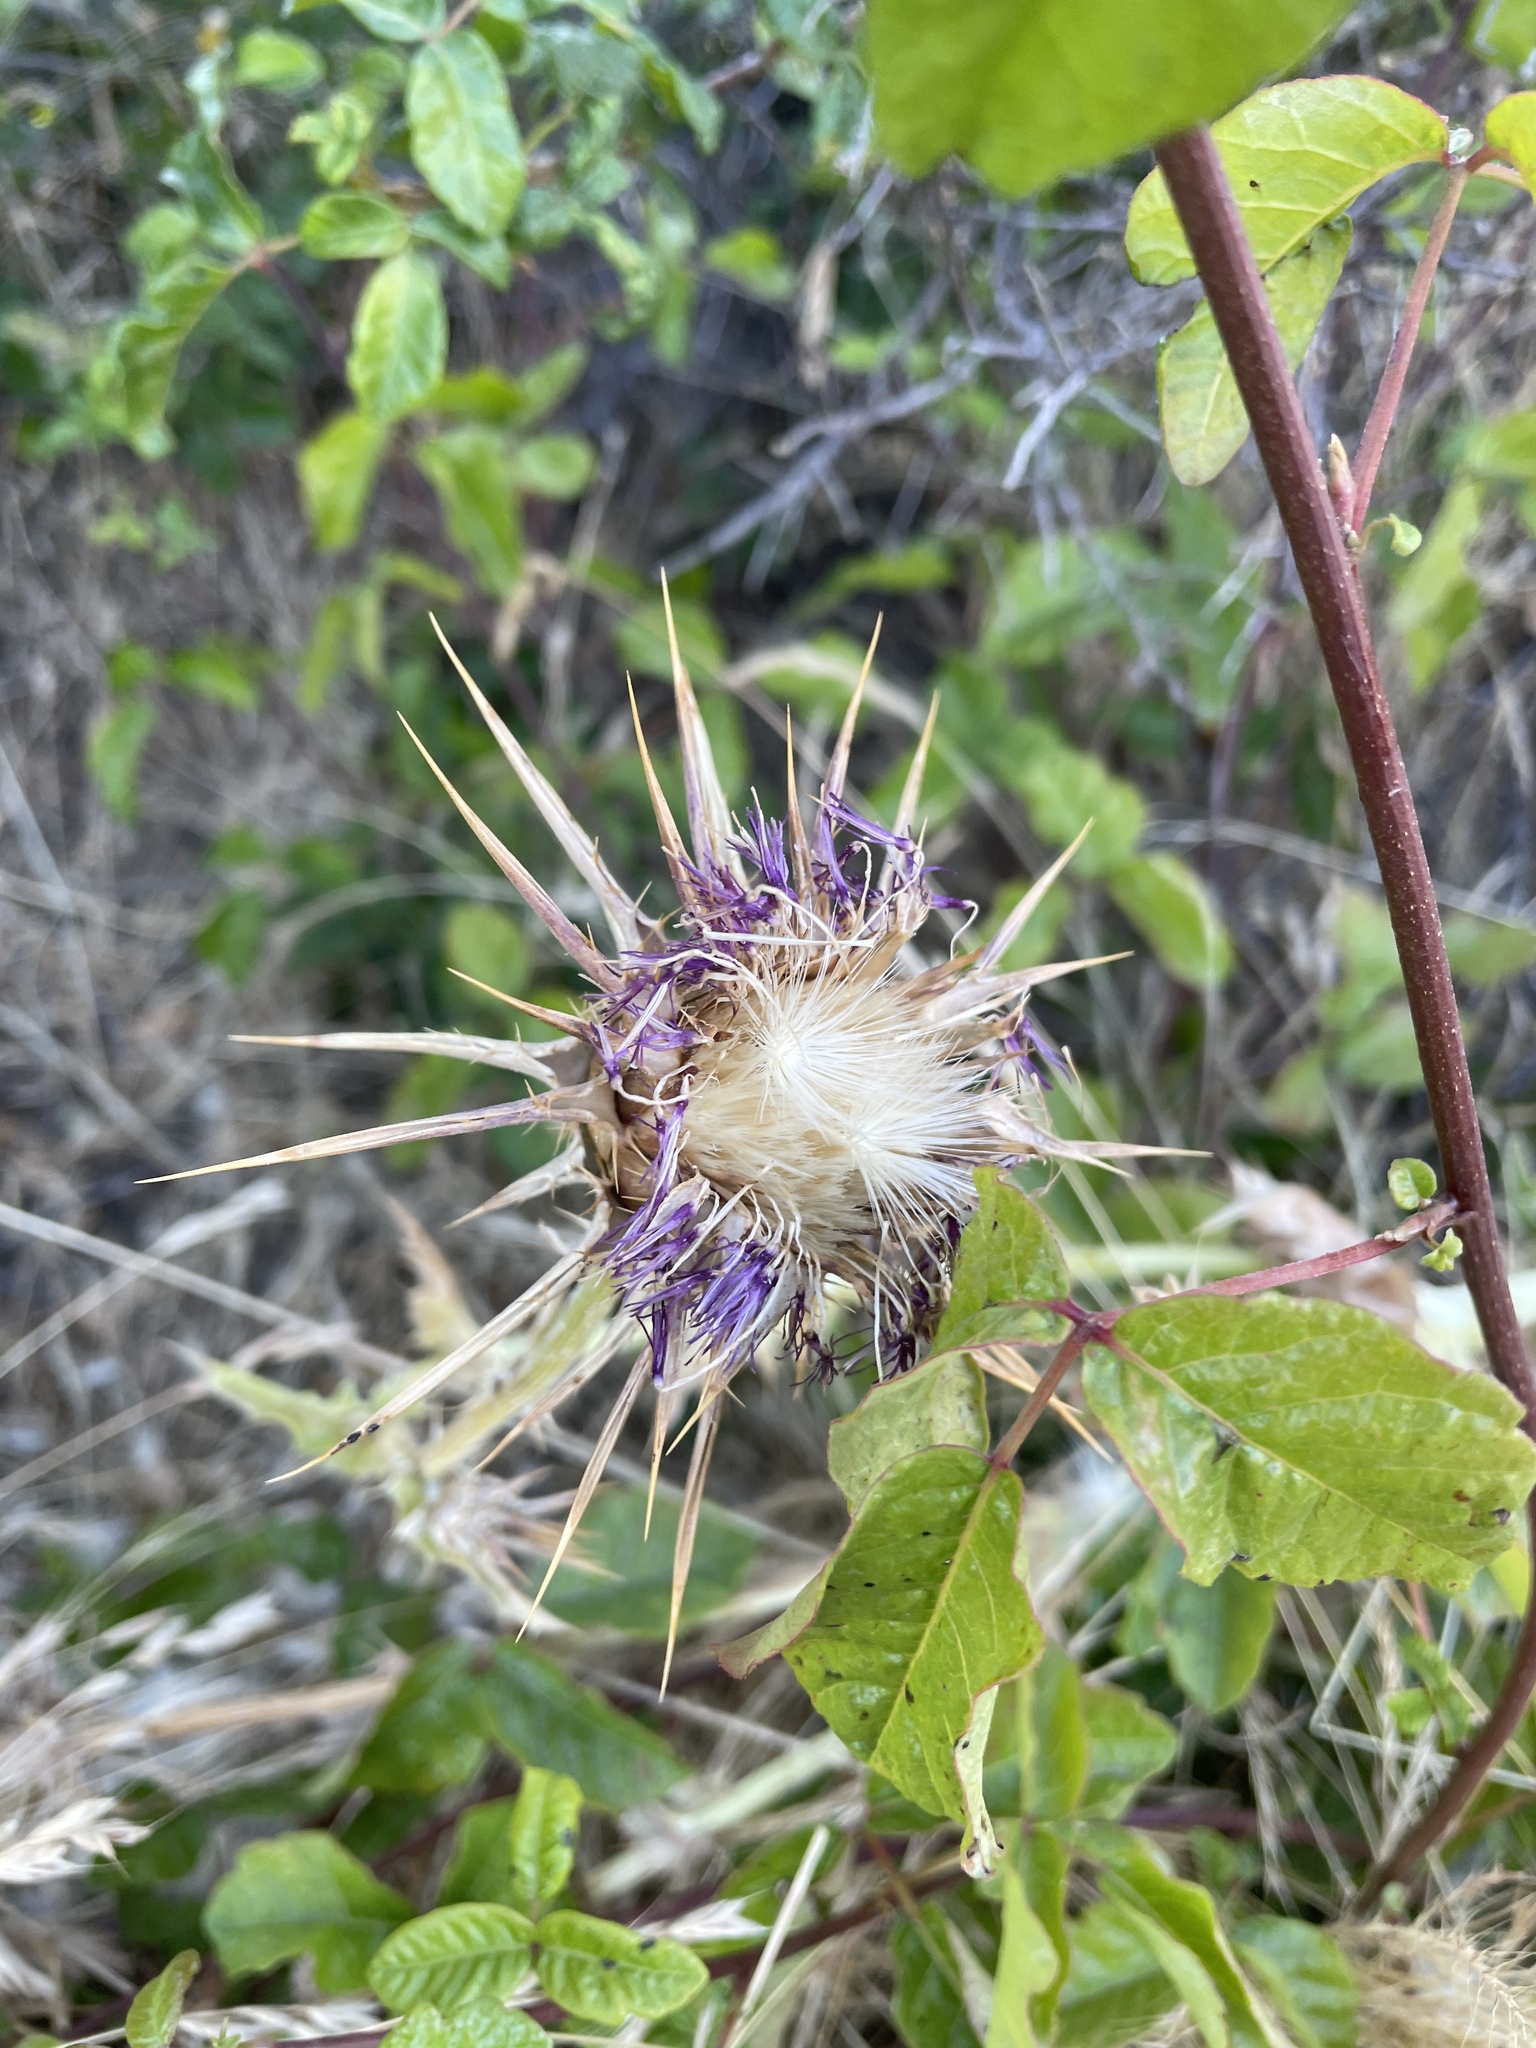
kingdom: Plantae
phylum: Tracheophyta
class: Magnoliopsida
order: Asterales
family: Asteraceae
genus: Silybum
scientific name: Silybum marianum
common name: Milk thistle
